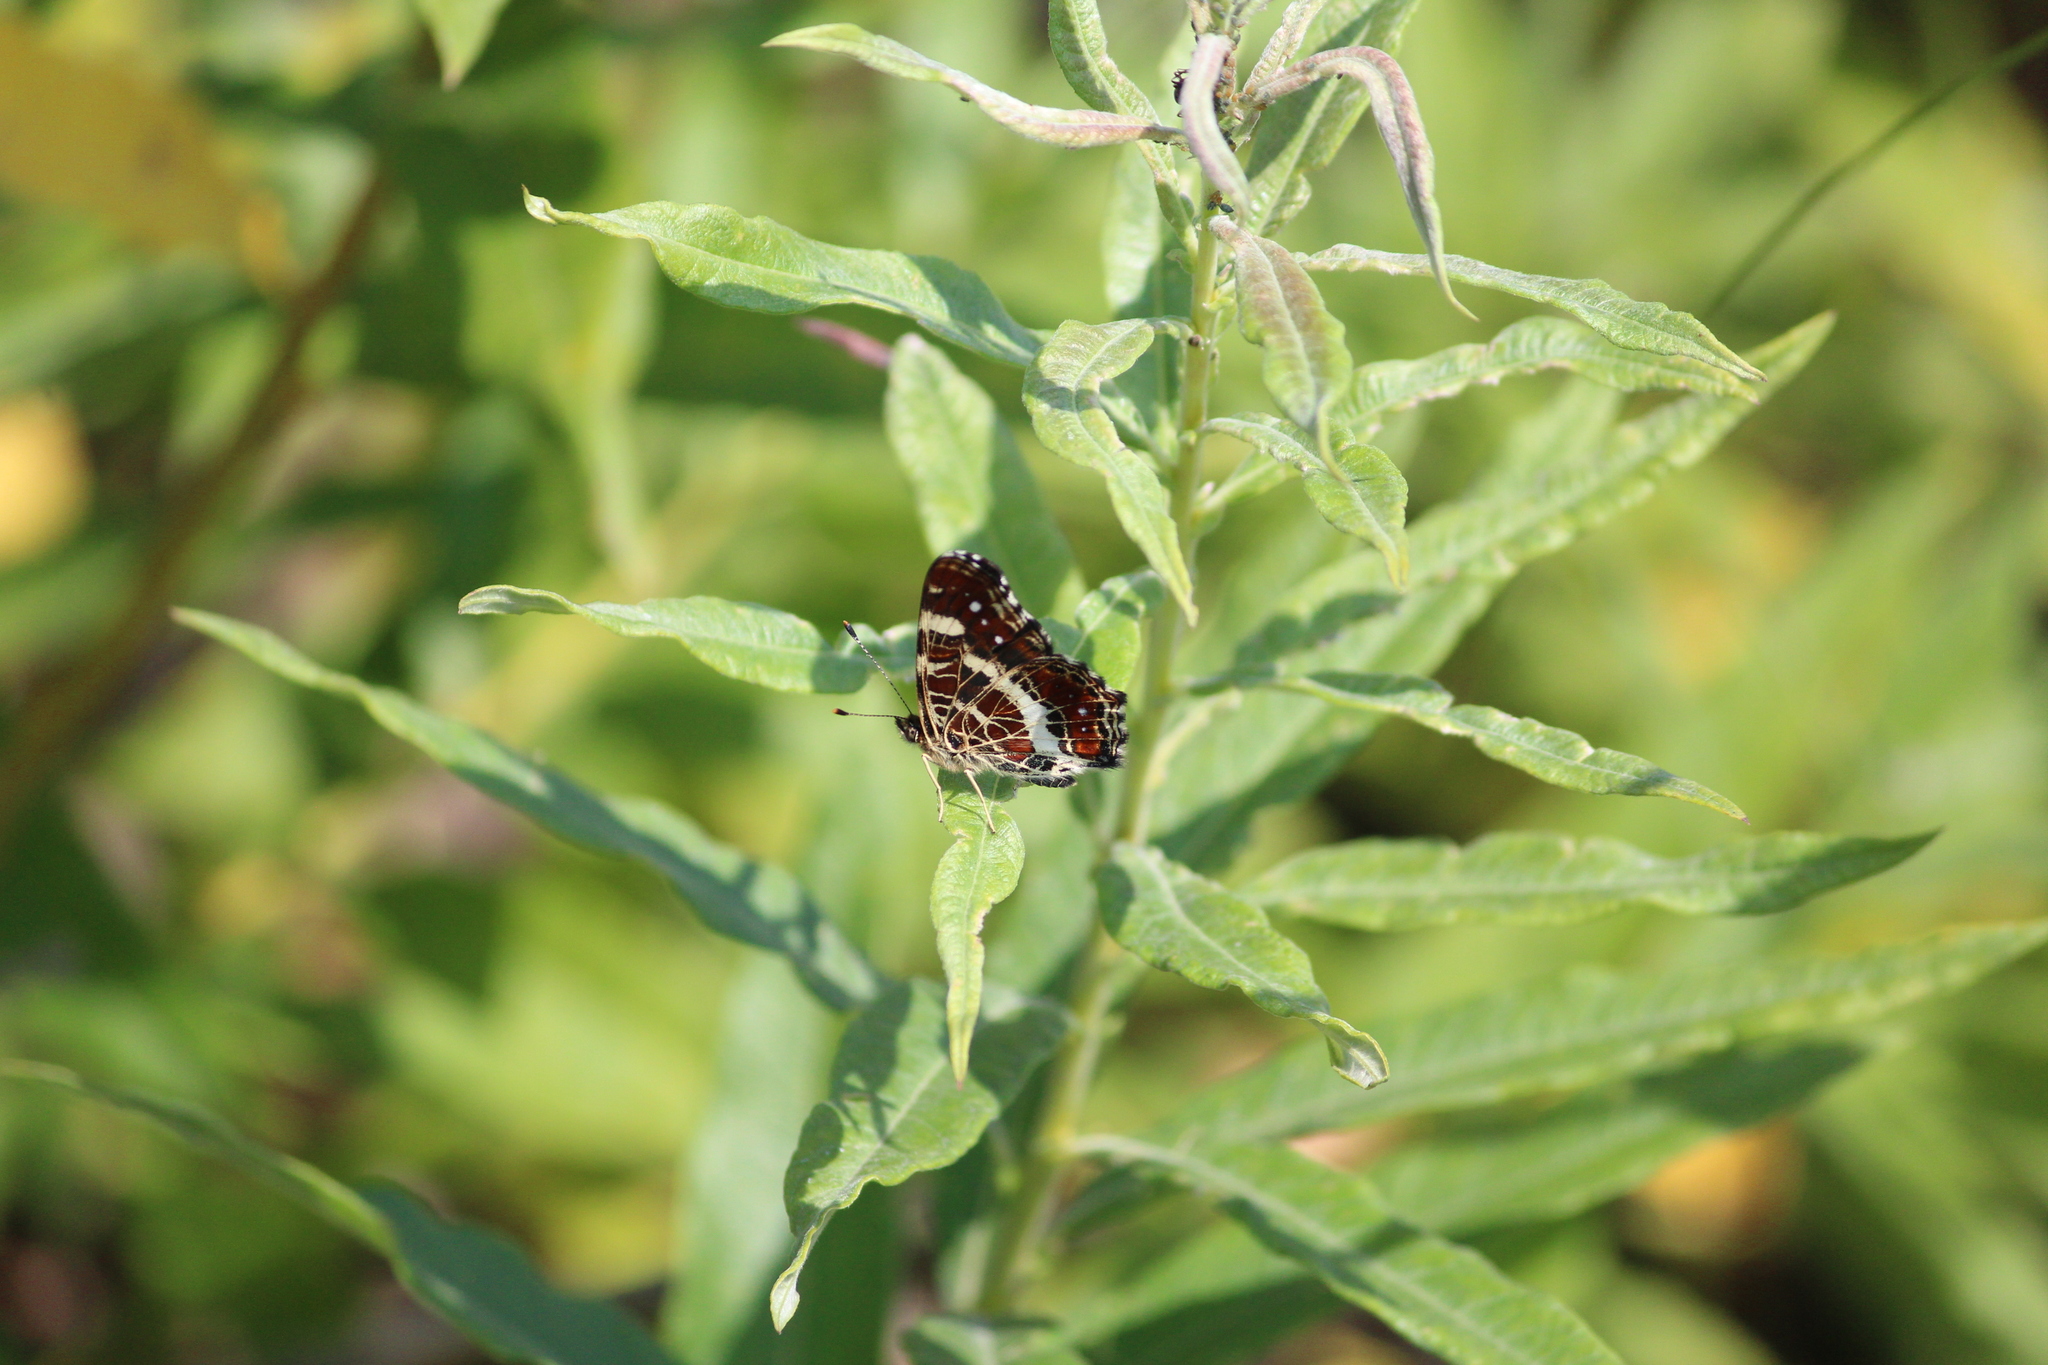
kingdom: Animalia
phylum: Arthropoda
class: Insecta
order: Lepidoptera
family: Nymphalidae
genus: Araschnia
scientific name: Araschnia levana
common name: Map butterfly
